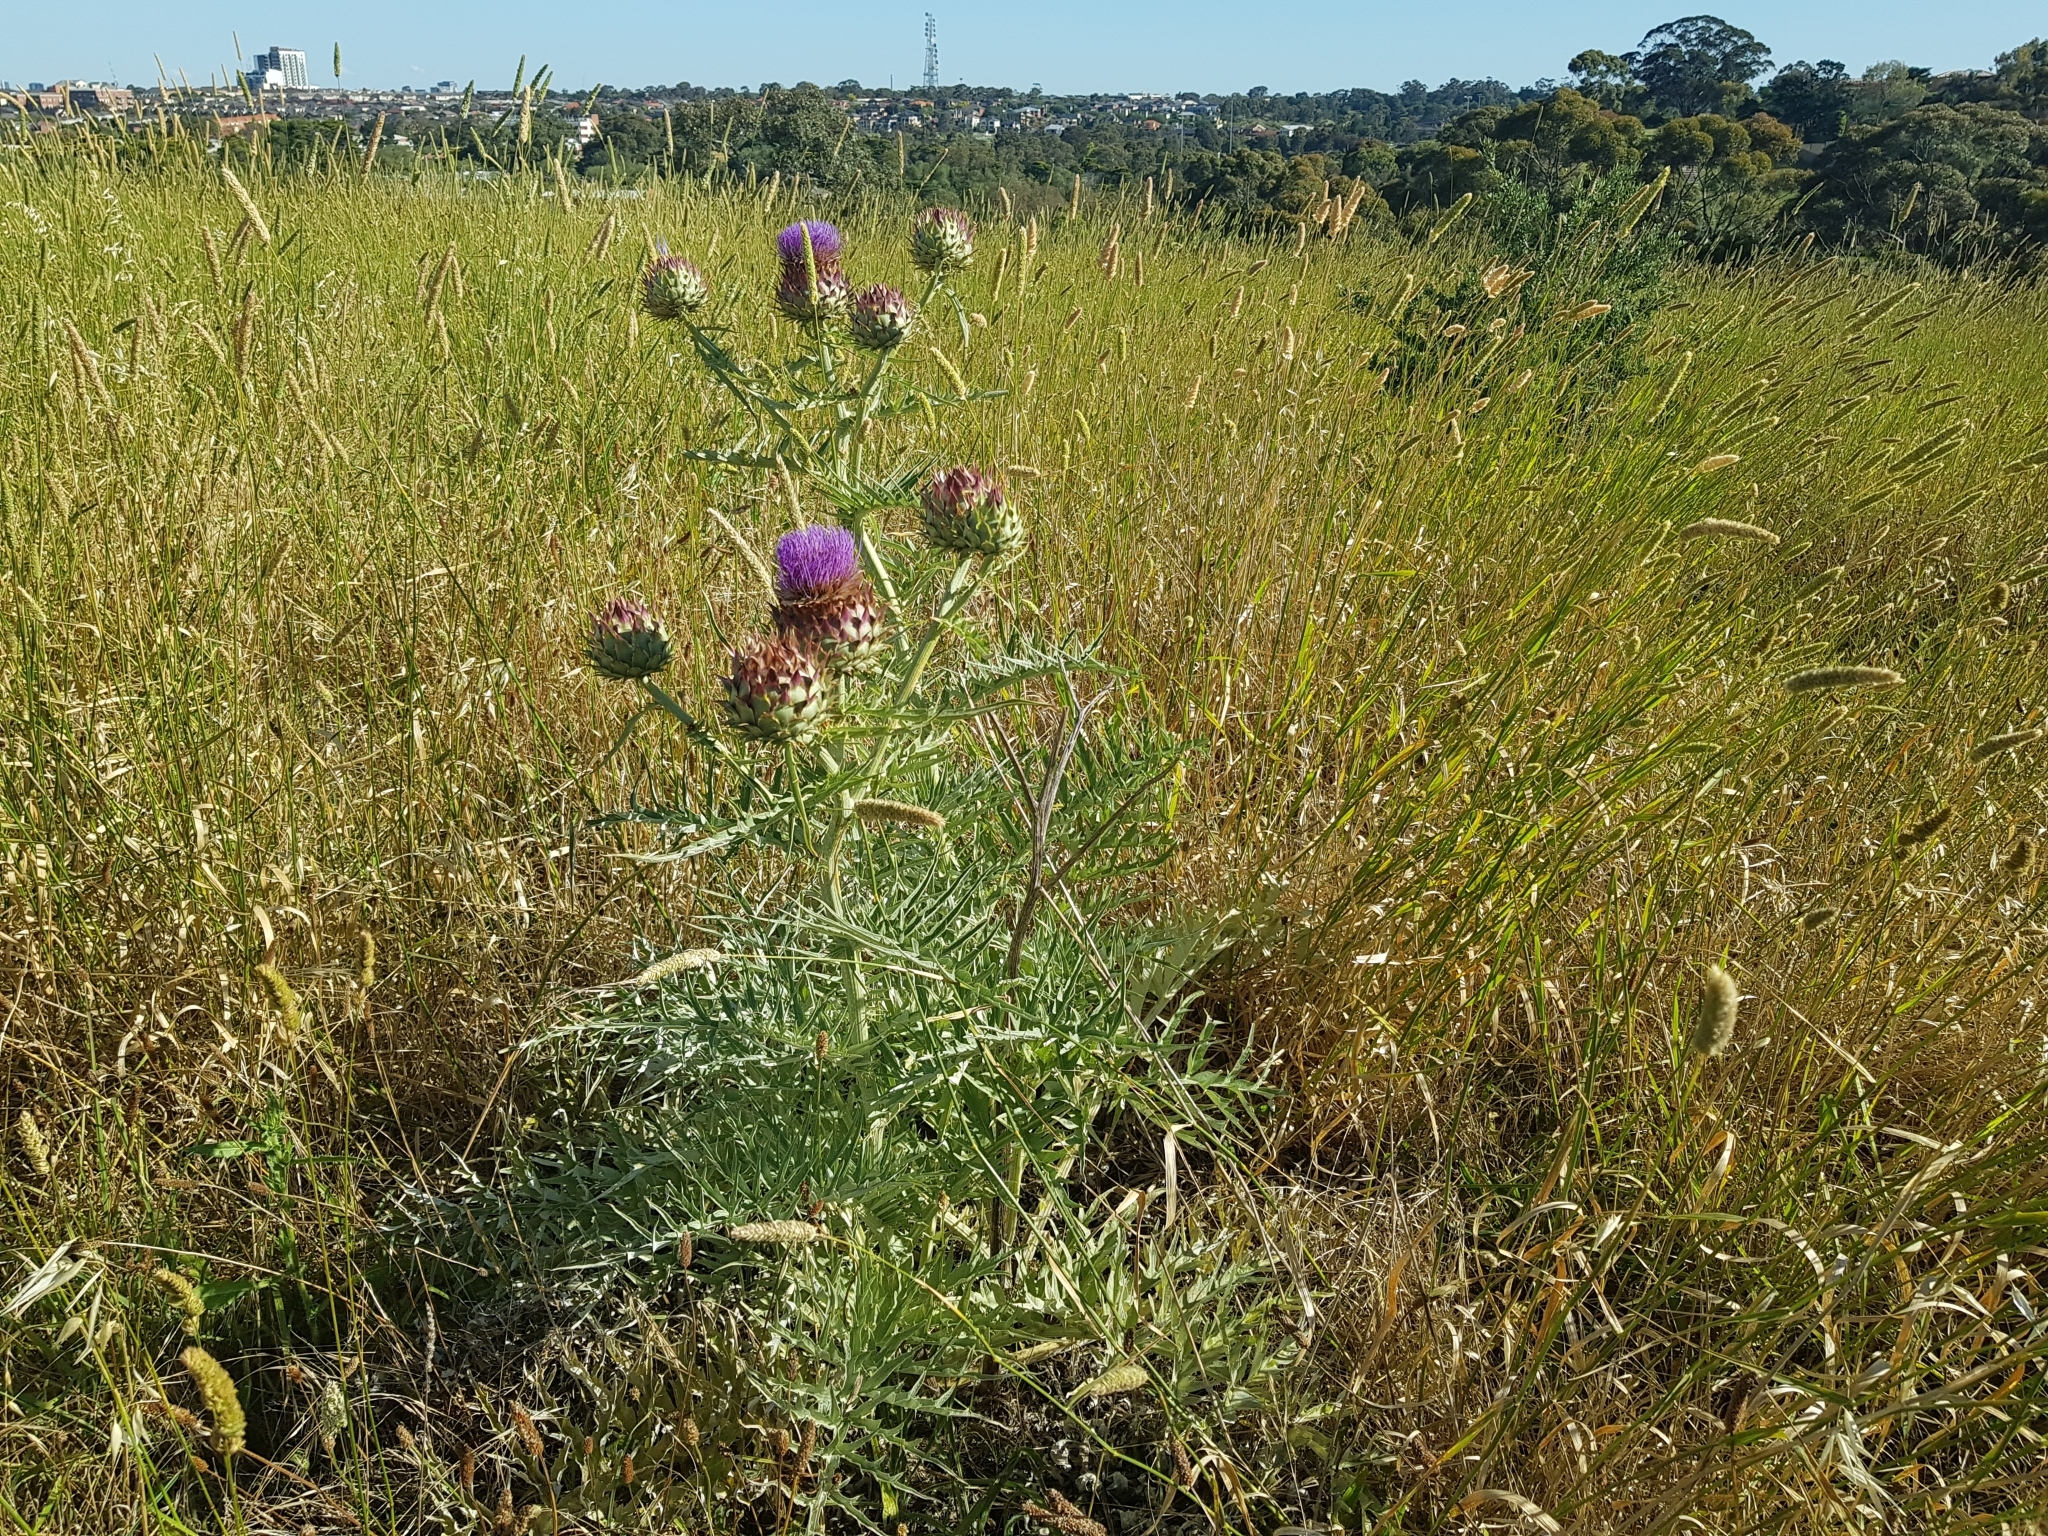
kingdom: Plantae
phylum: Tracheophyta
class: Magnoliopsida
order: Asterales
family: Asteraceae
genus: Cynara
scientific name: Cynara cardunculus
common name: Globe artichoke
